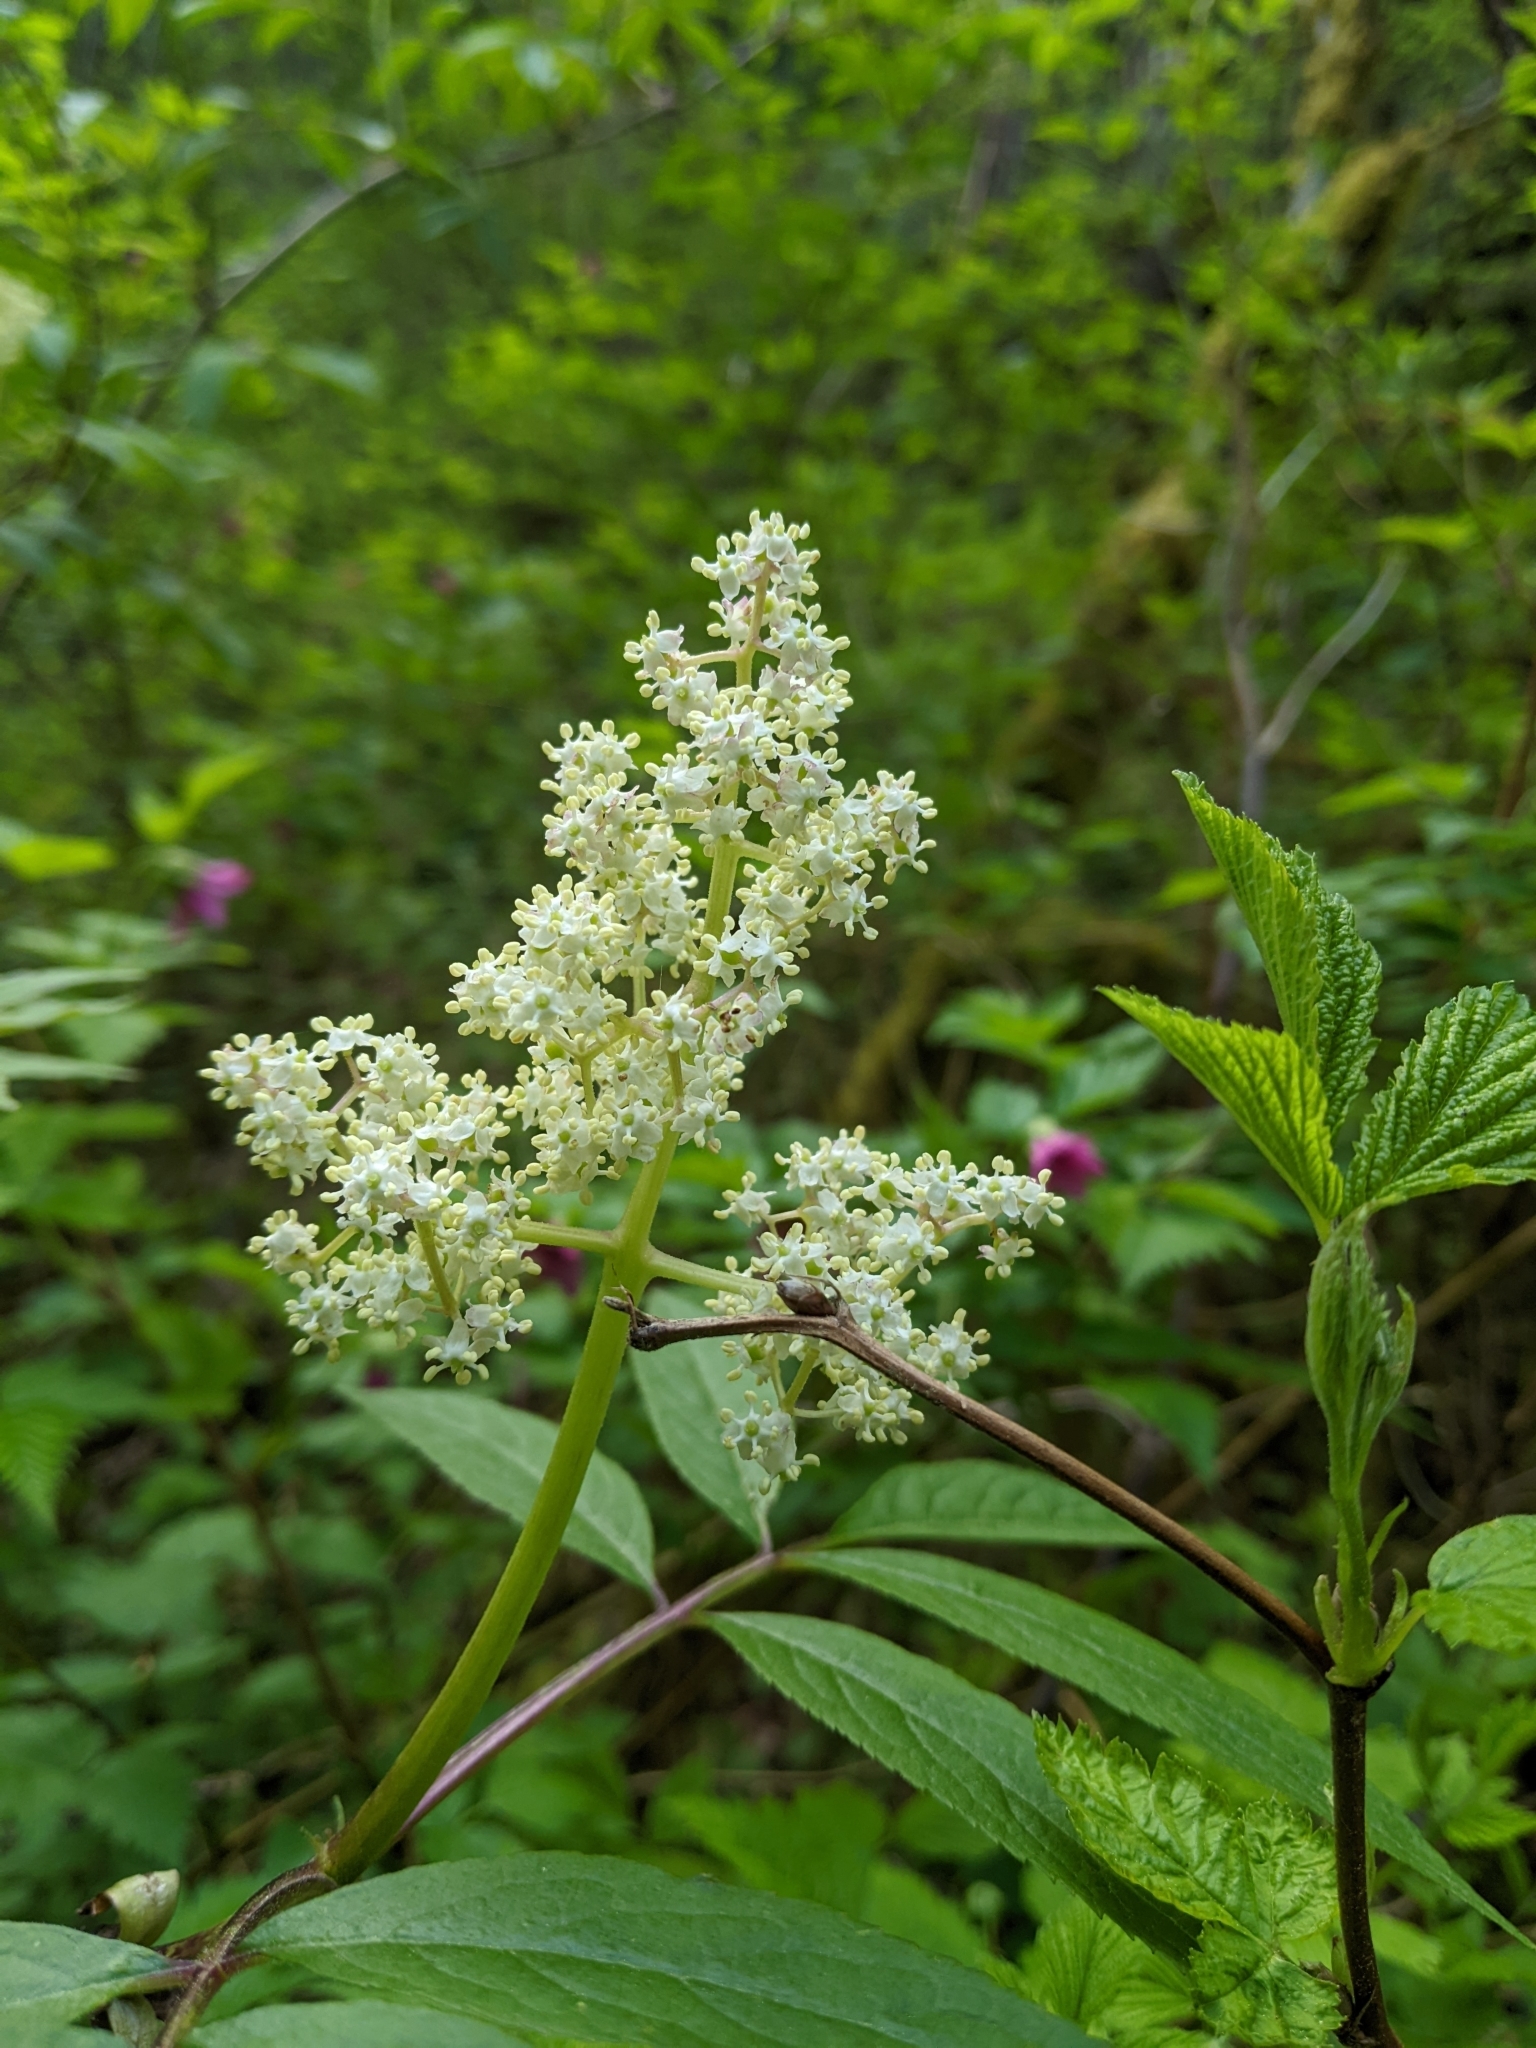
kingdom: Plantae
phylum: Tracheophyta
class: Magnoliopsida
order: Dipsacales
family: Viburnaceae
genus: Sambucus
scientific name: Sambucus racemosa
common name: Red-berried elder
